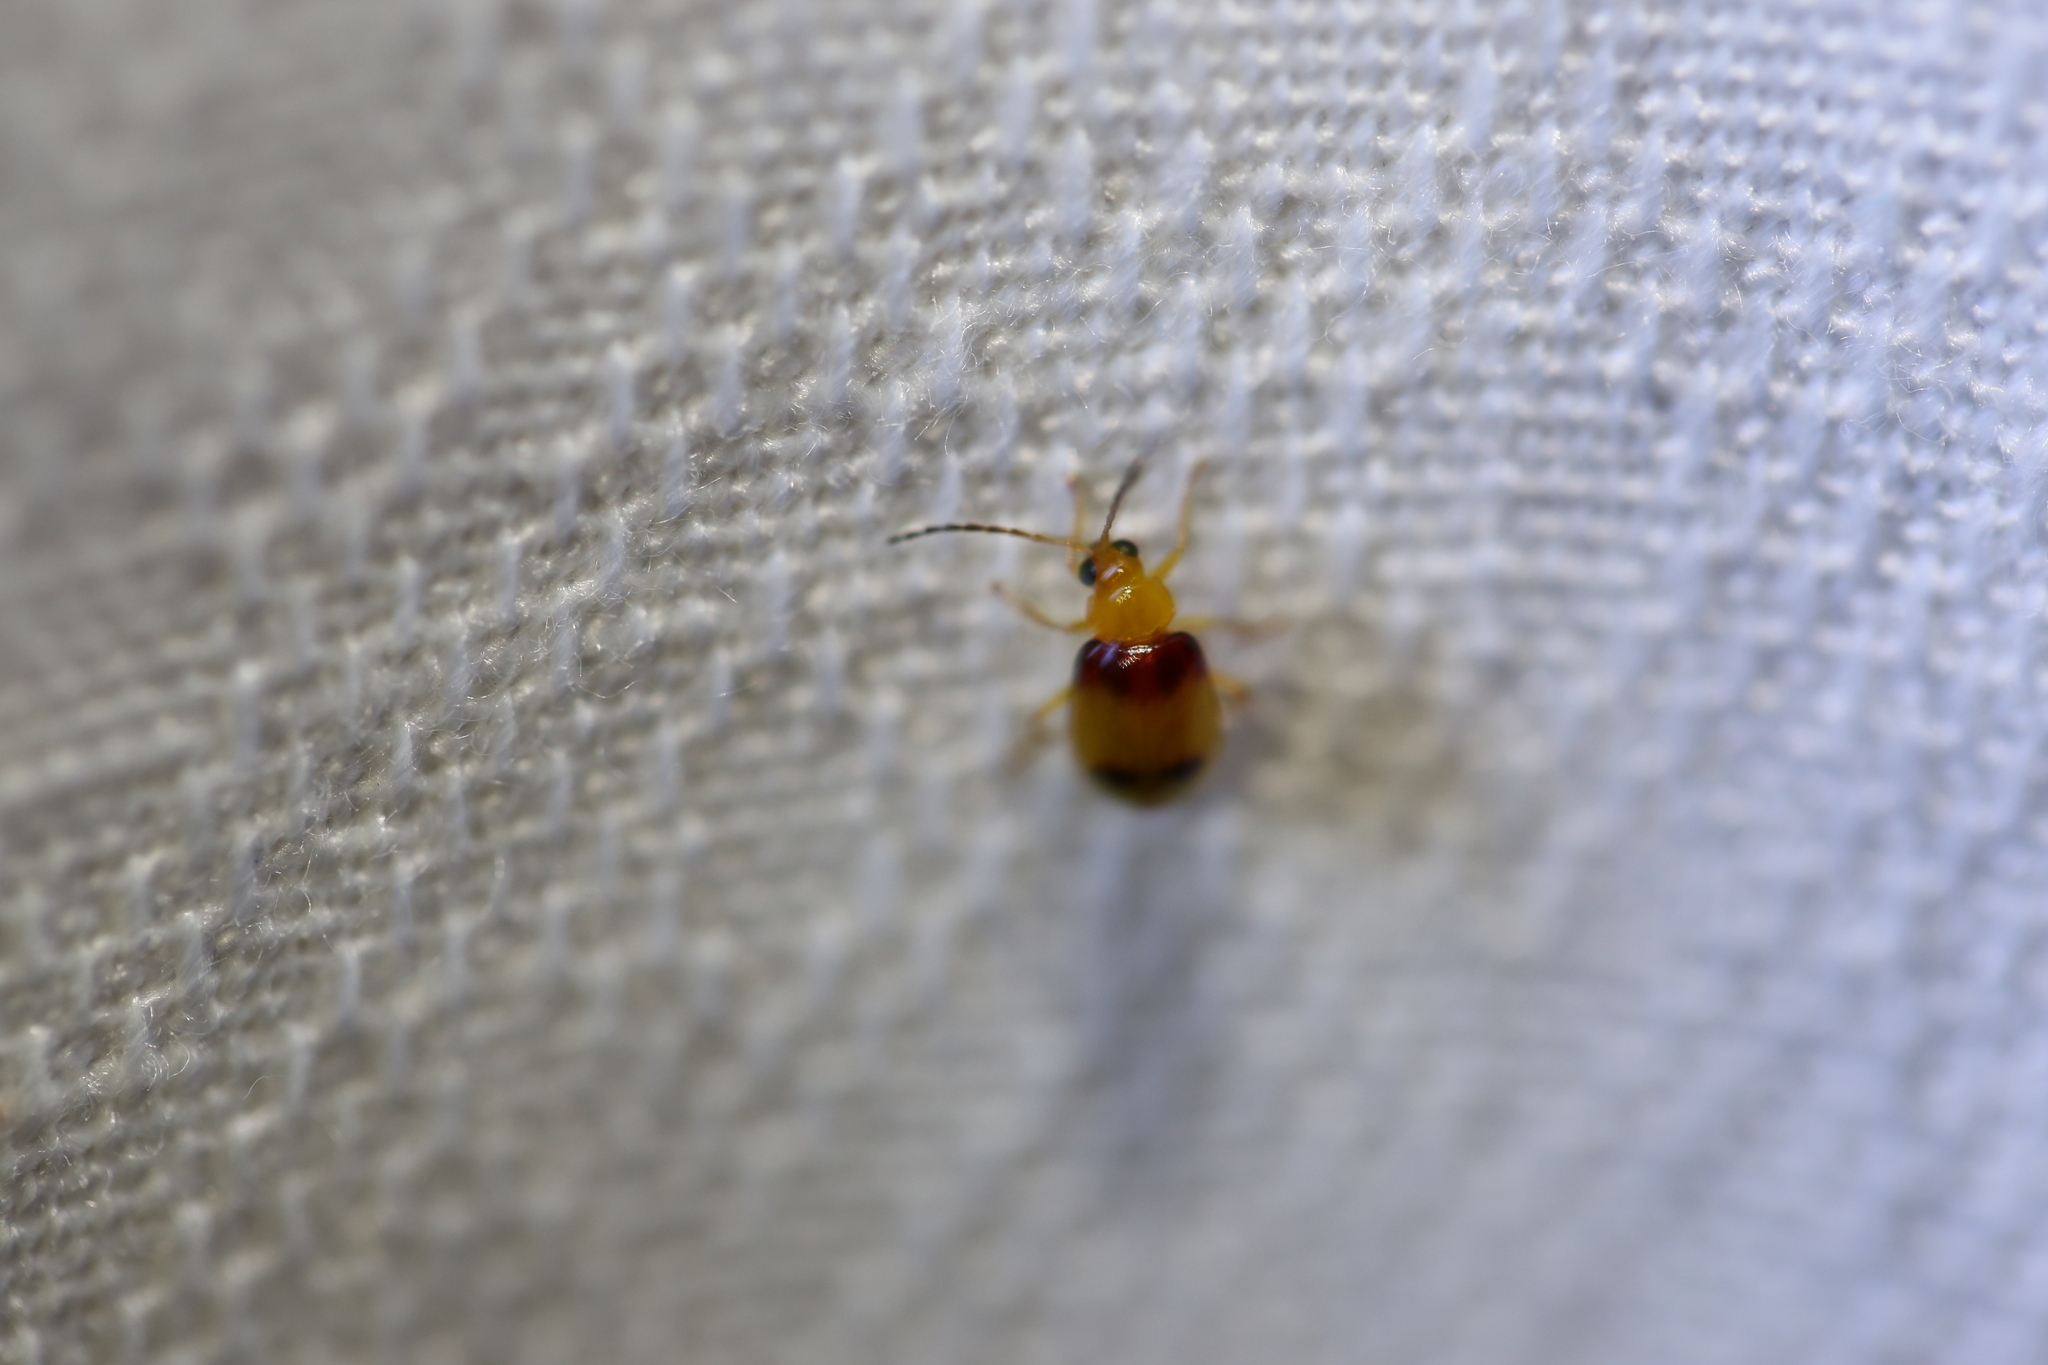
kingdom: Animalia
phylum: Arthropoda
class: Insecta
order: Coleoptera
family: Chrysomelidae
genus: Monolepta
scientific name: Monolepta
